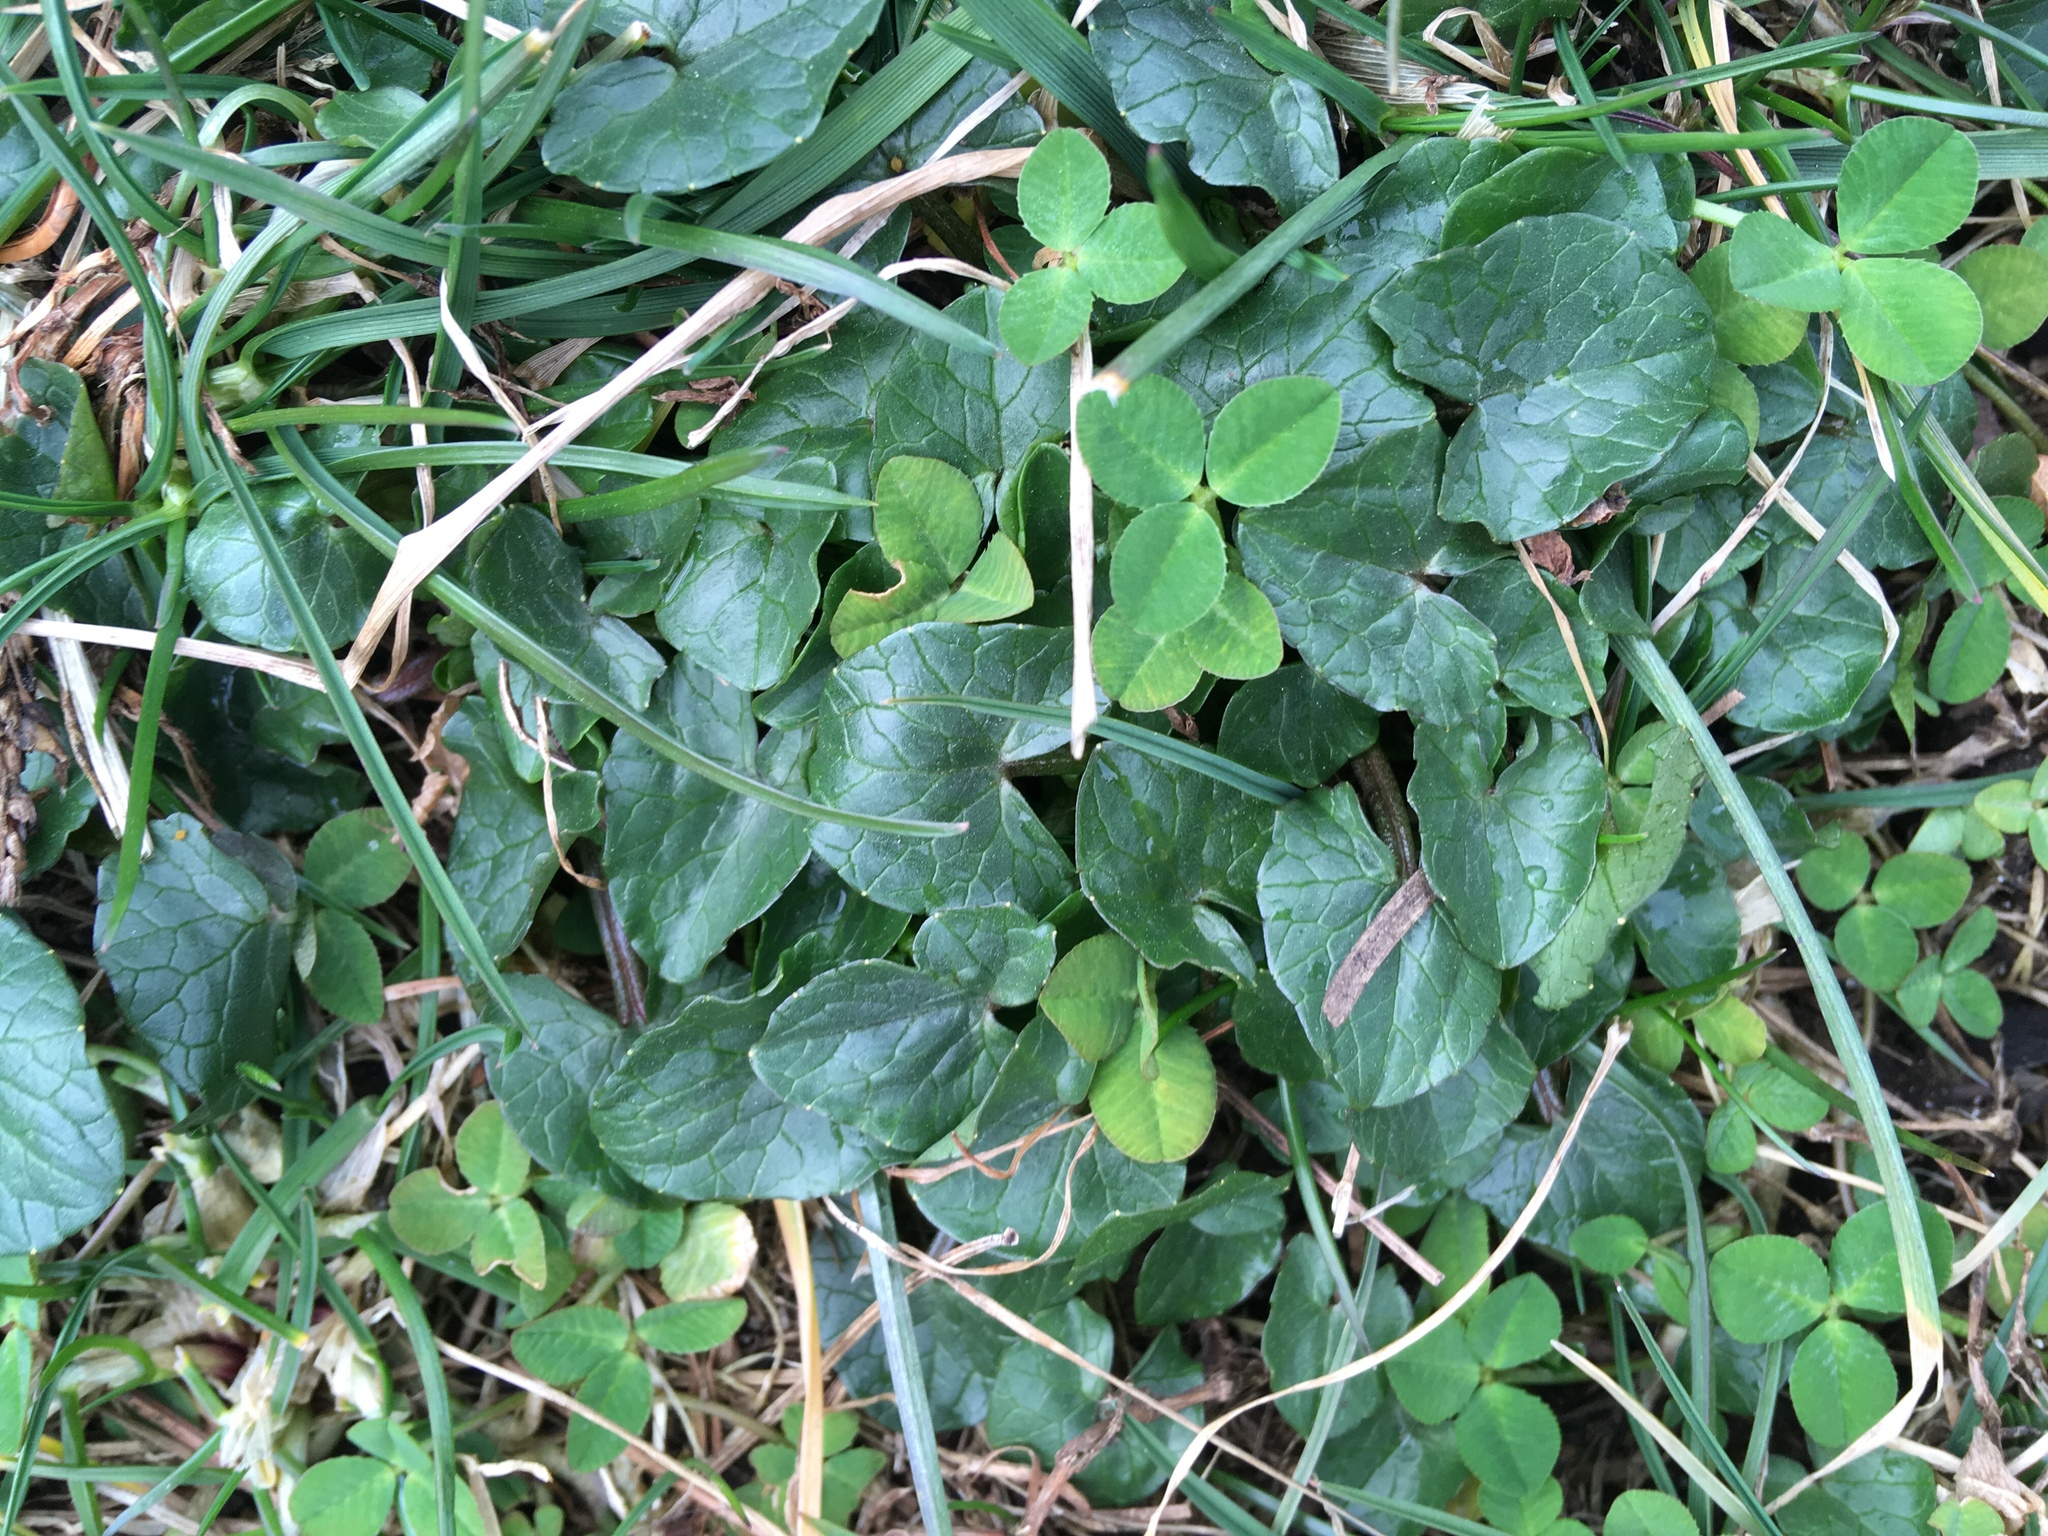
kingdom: Plantae
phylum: Tracheophyta
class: Magnoliopsida
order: Ranunculales
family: Ranunculaceae
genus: Ficaria
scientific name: Ficaria verna
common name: Lesser celandine
